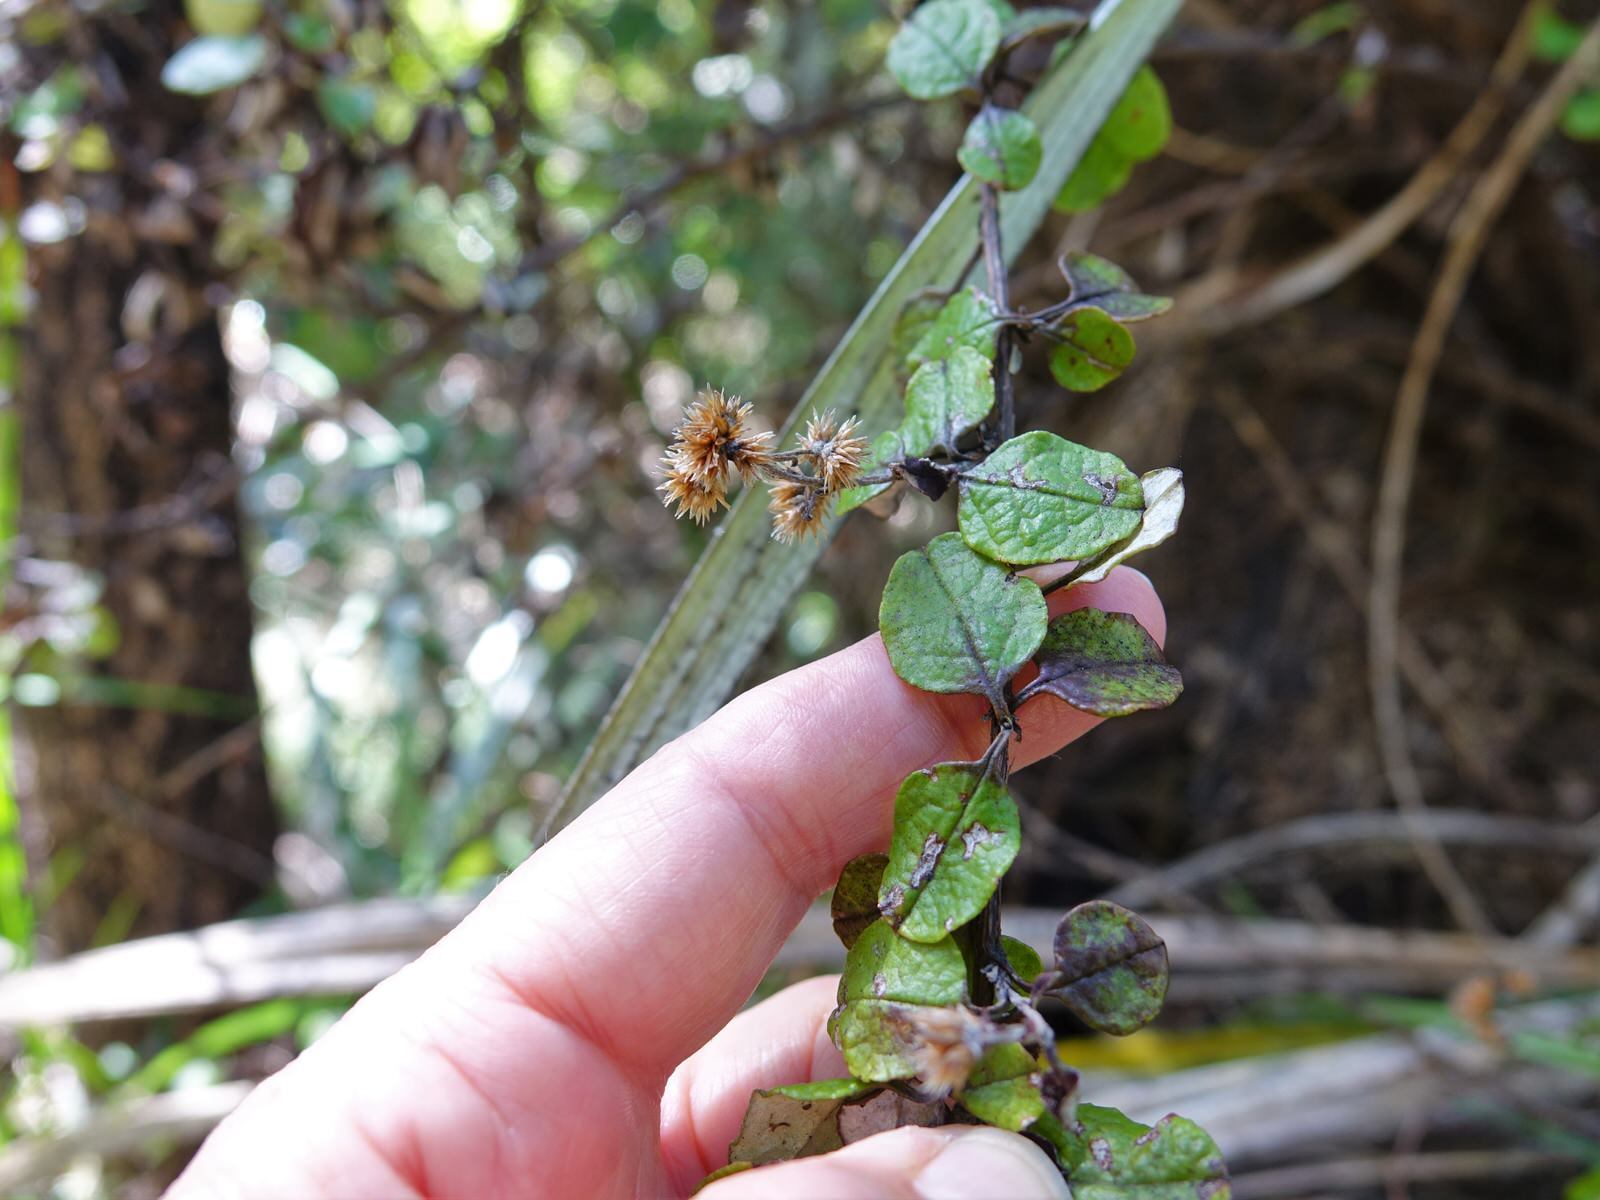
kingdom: Plantae
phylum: Tracheophyta
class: Magnoliopsida
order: Asterales
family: Asteraceae
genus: Ozothamnus
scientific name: Ozothamnus glomeratus
